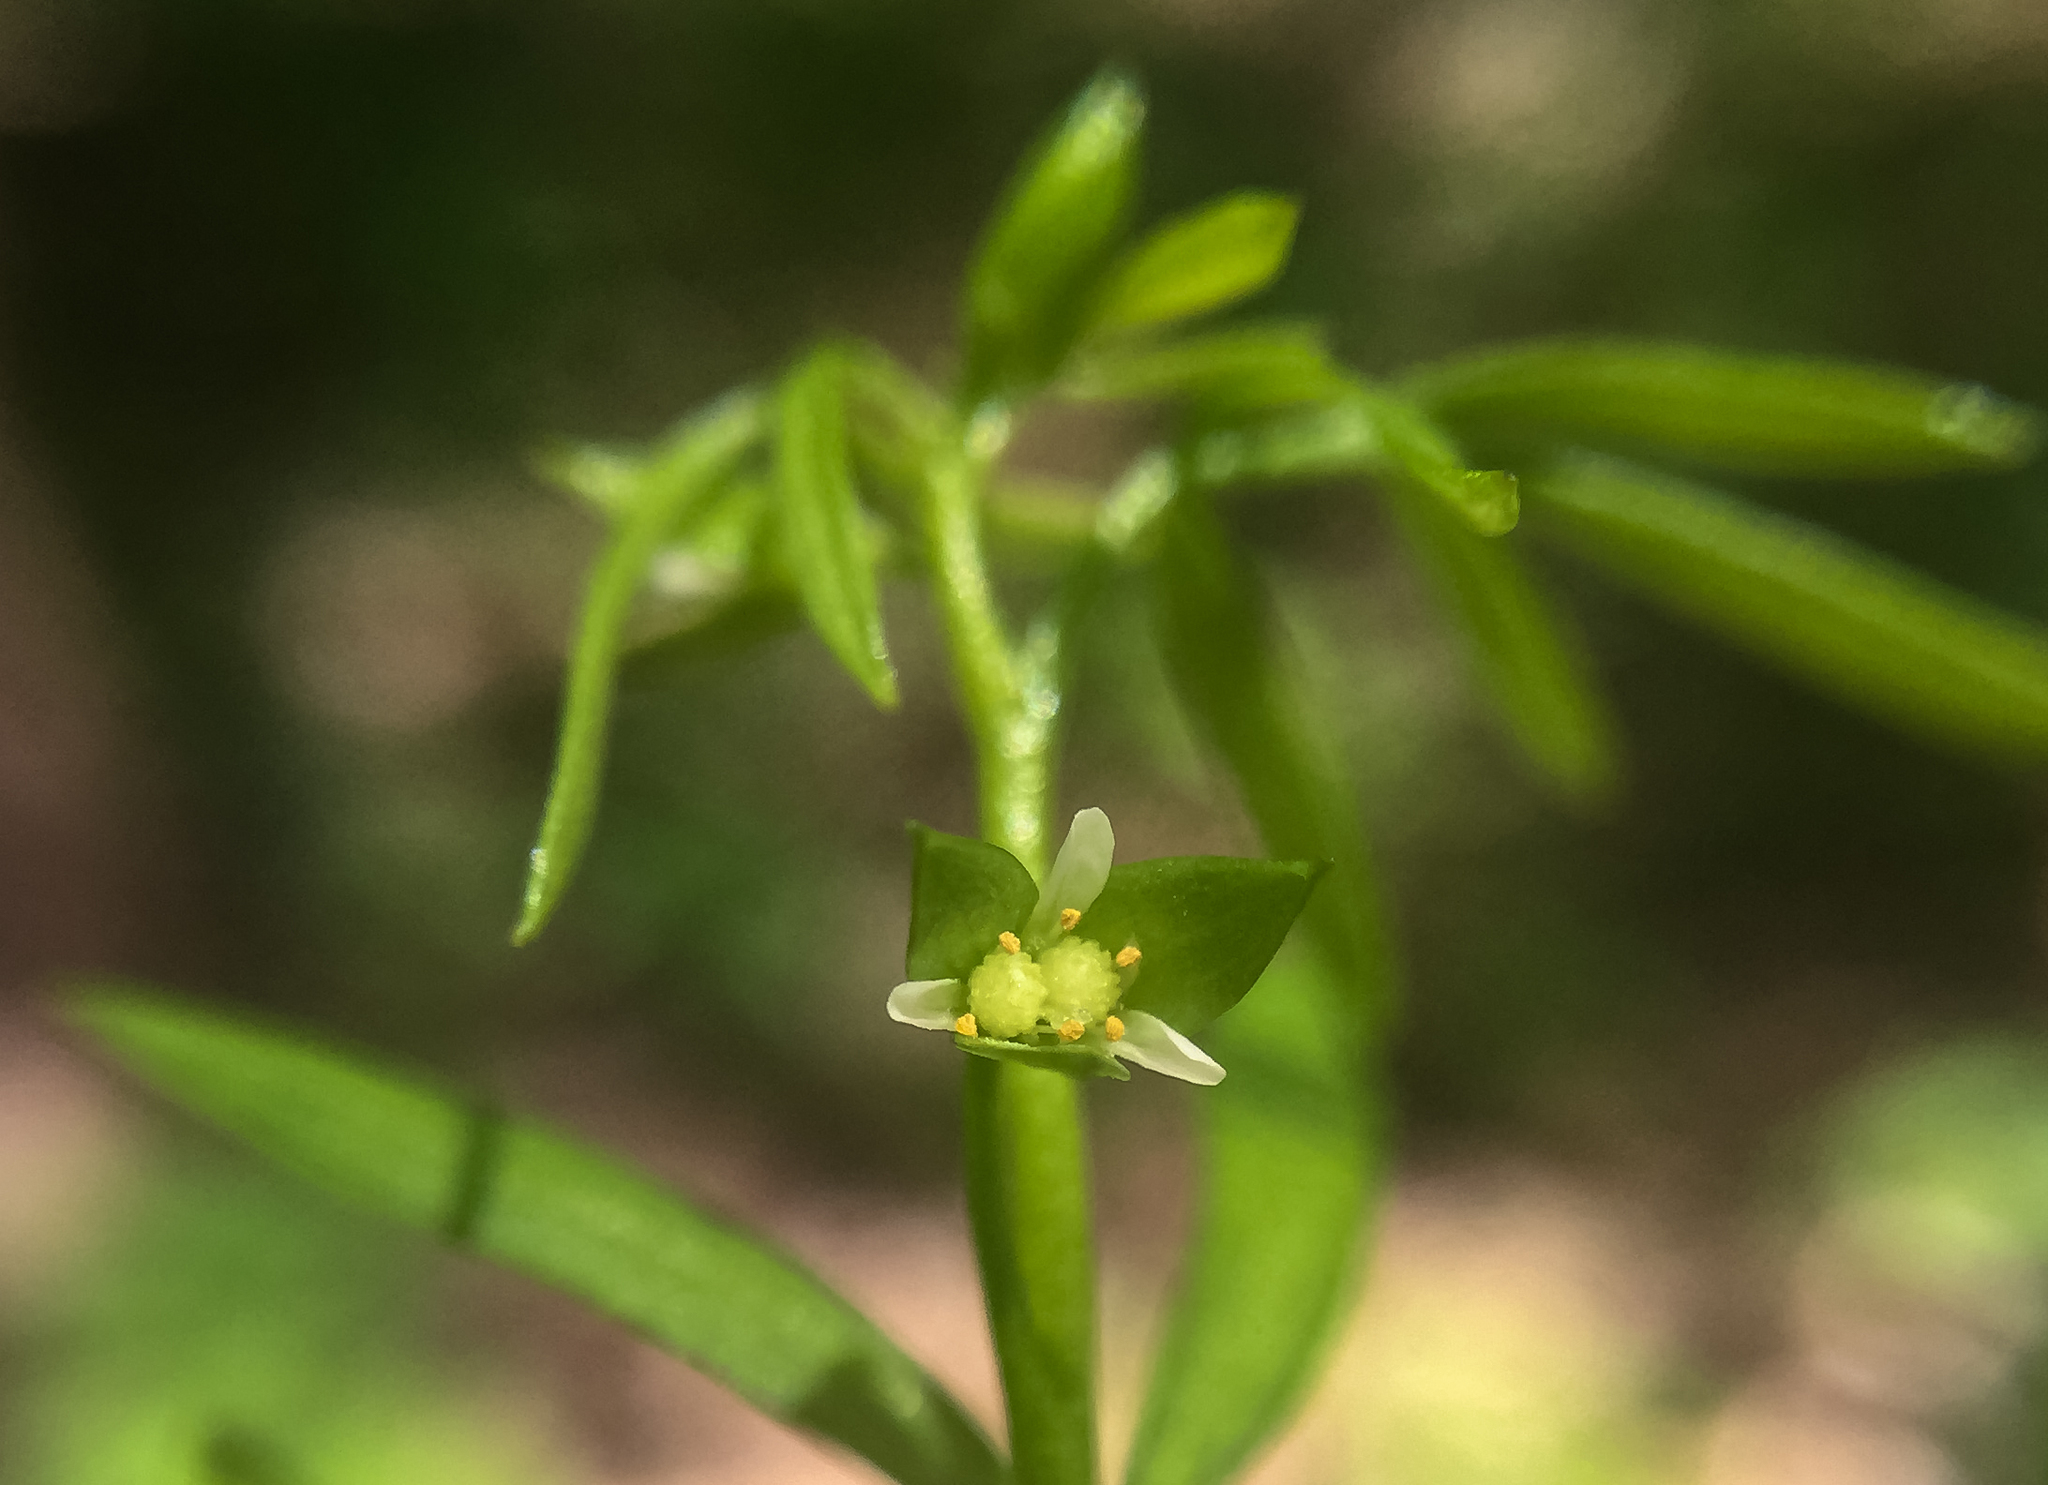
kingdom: Plantae
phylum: Tracheophyta
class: Magnoliopsida
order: Brassicales
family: Limnanthaceae
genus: Floerkea
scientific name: Floerkea proserpinacoides
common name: False mermaid
